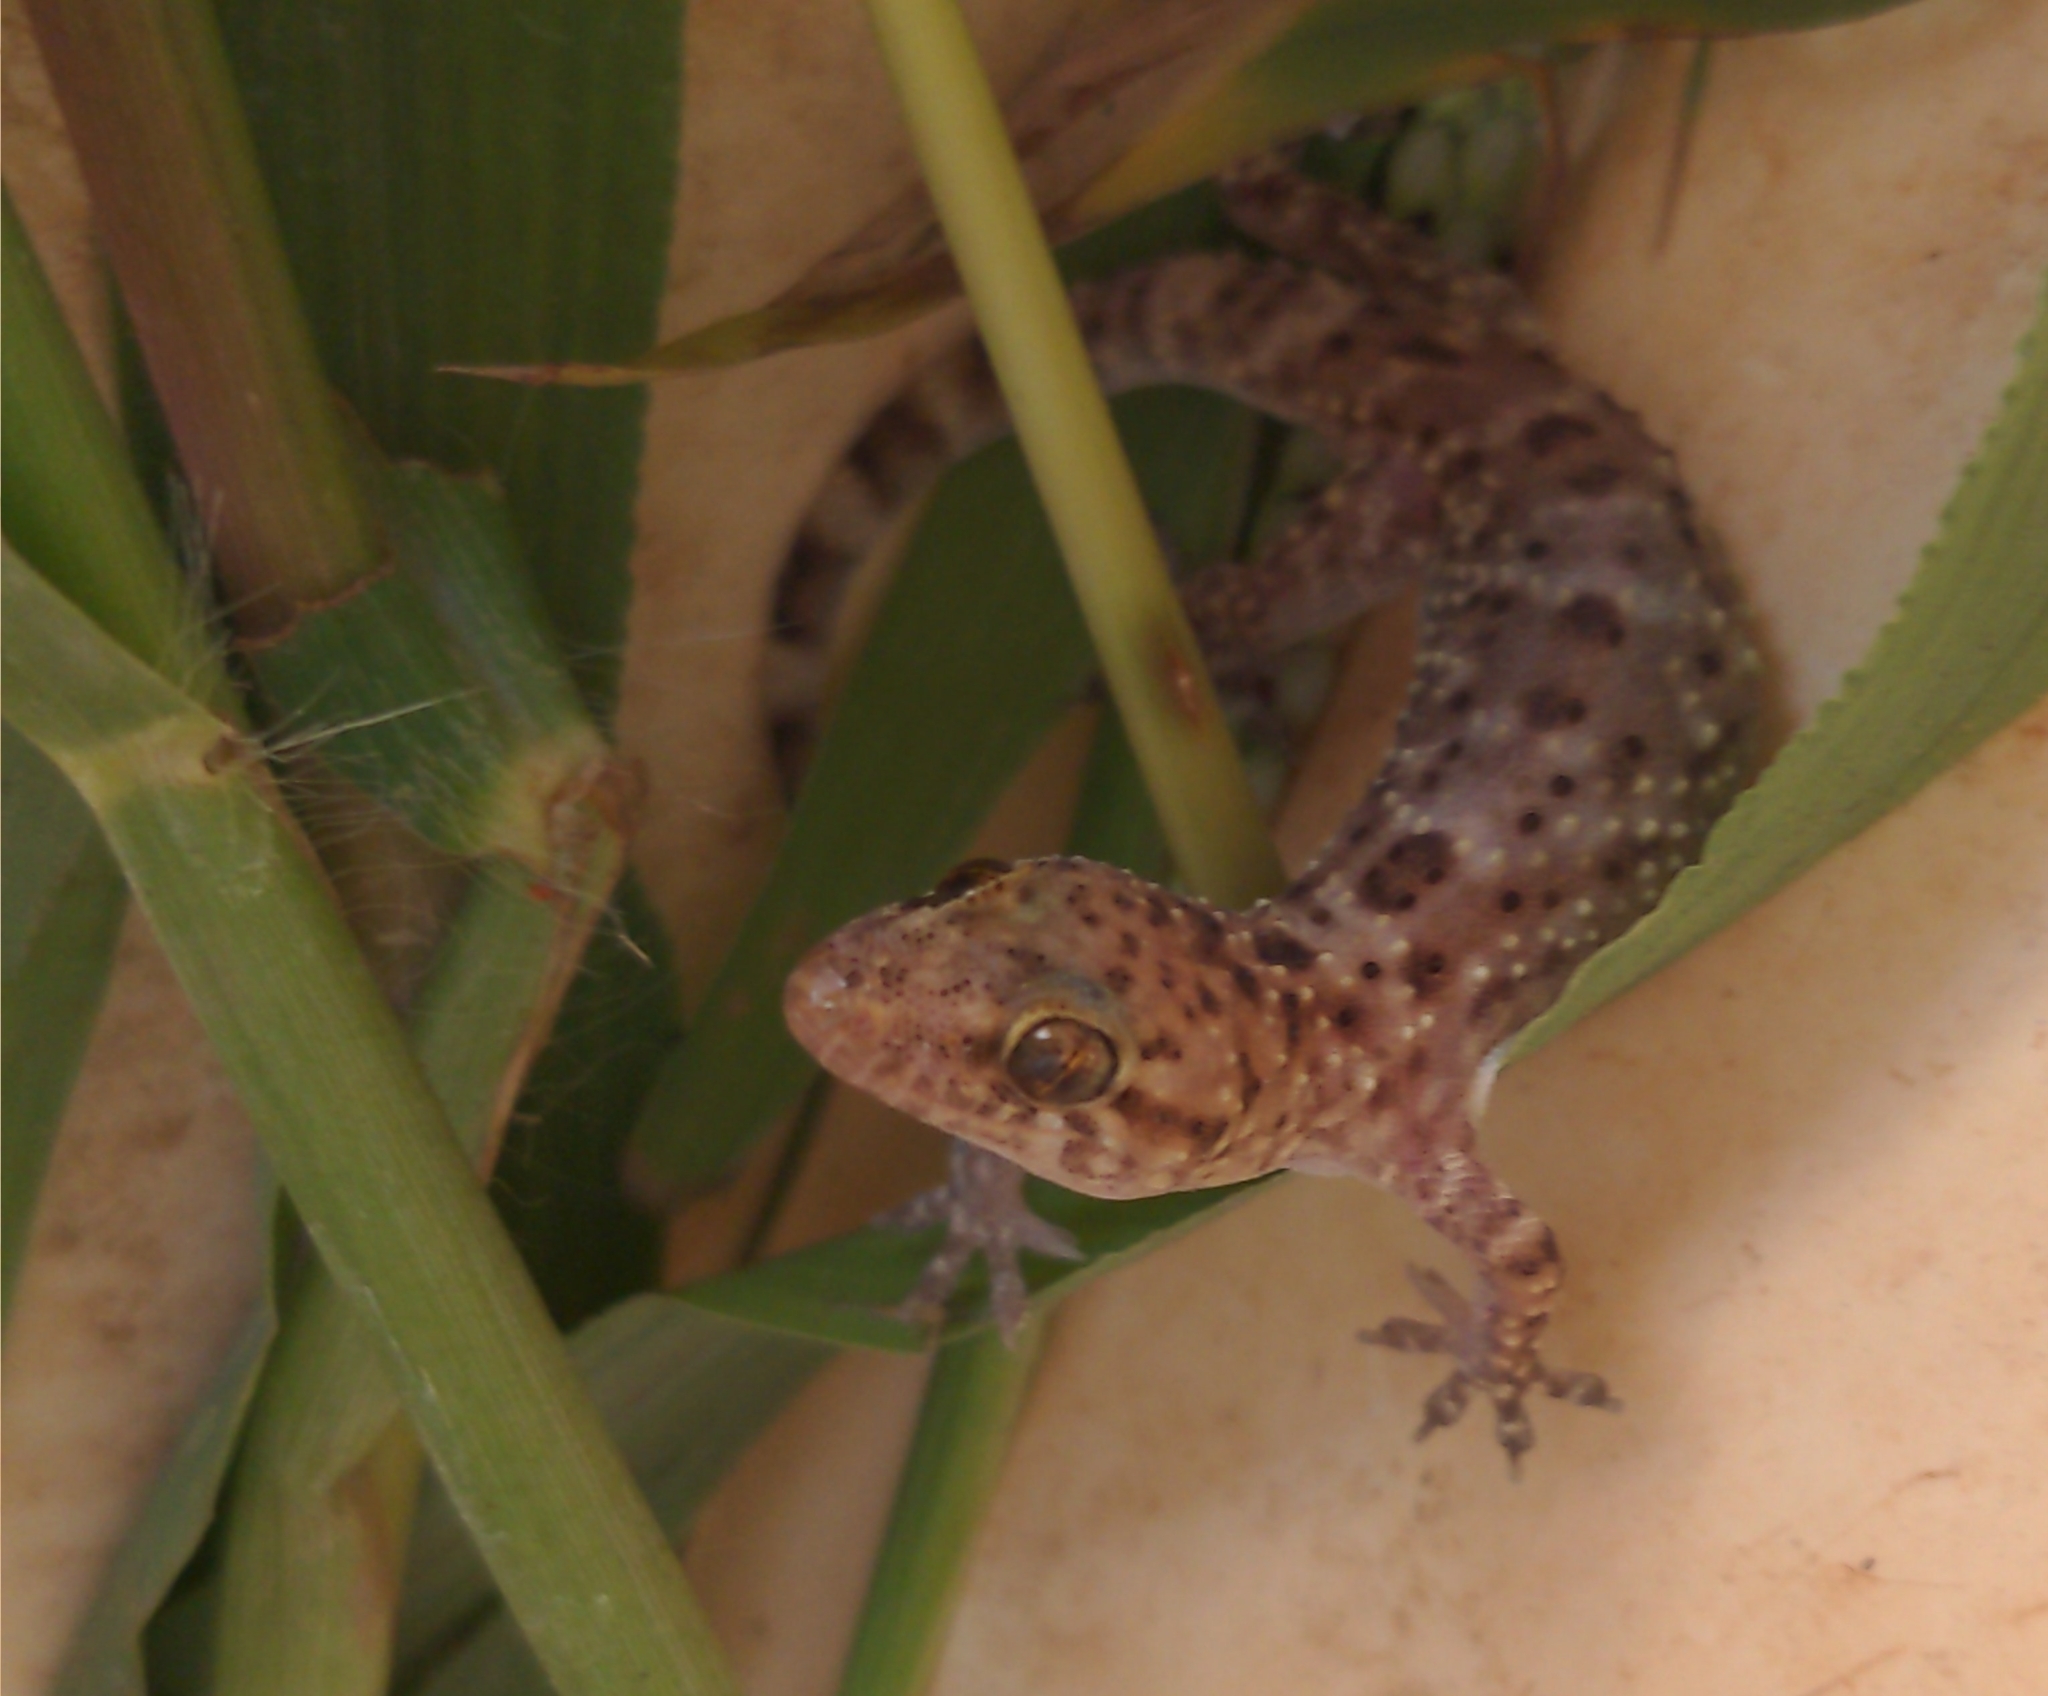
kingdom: Animalia
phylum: Chordata
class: Squamata
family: Gekkonidae
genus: Hemidactylus
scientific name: Hemidactylus turcicus
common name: Turkish gecko
